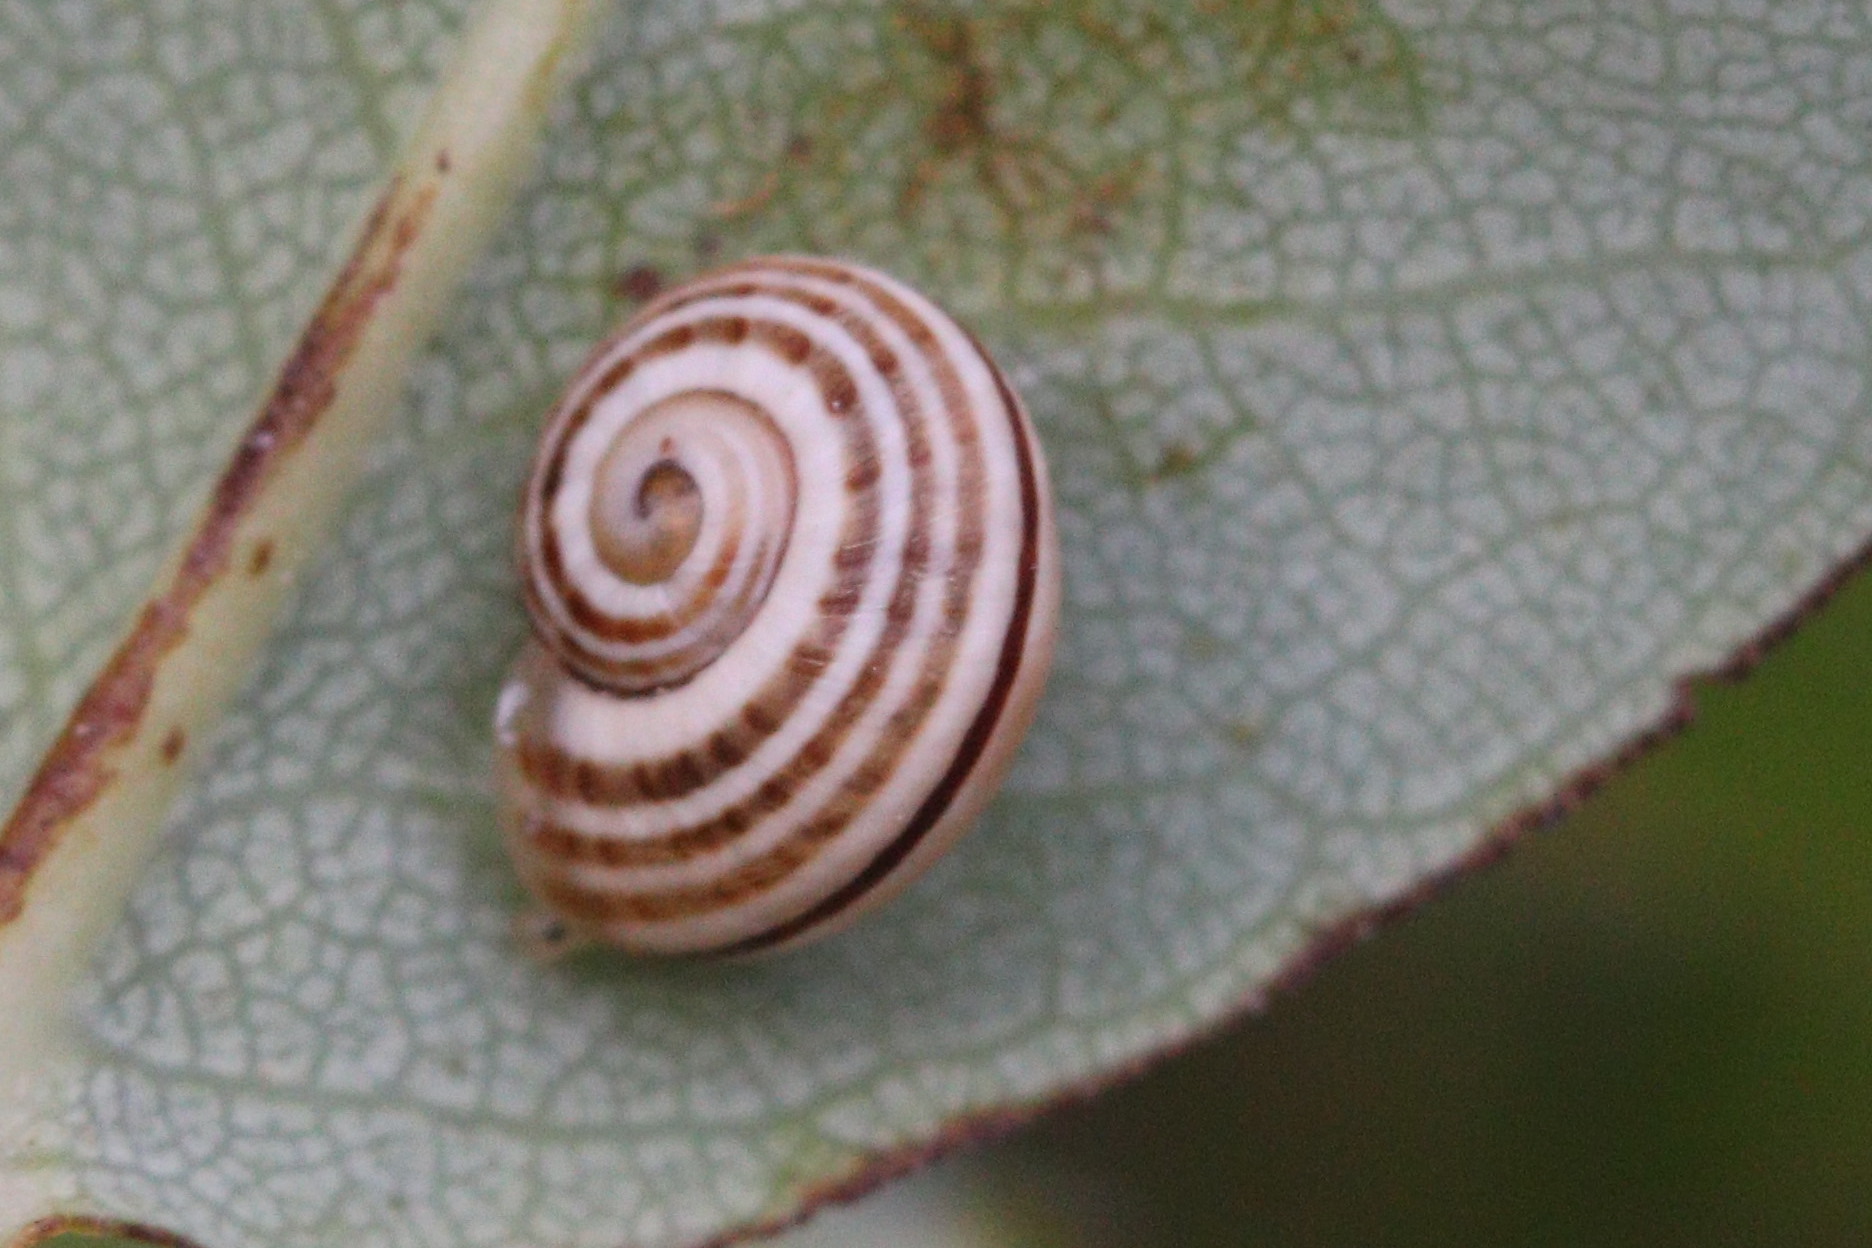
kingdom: Animalia
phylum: Mollusca
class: Gastropoda
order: Stylommatophora
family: Helicidae
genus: Pseudotachea
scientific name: Pseudotachea splendida
